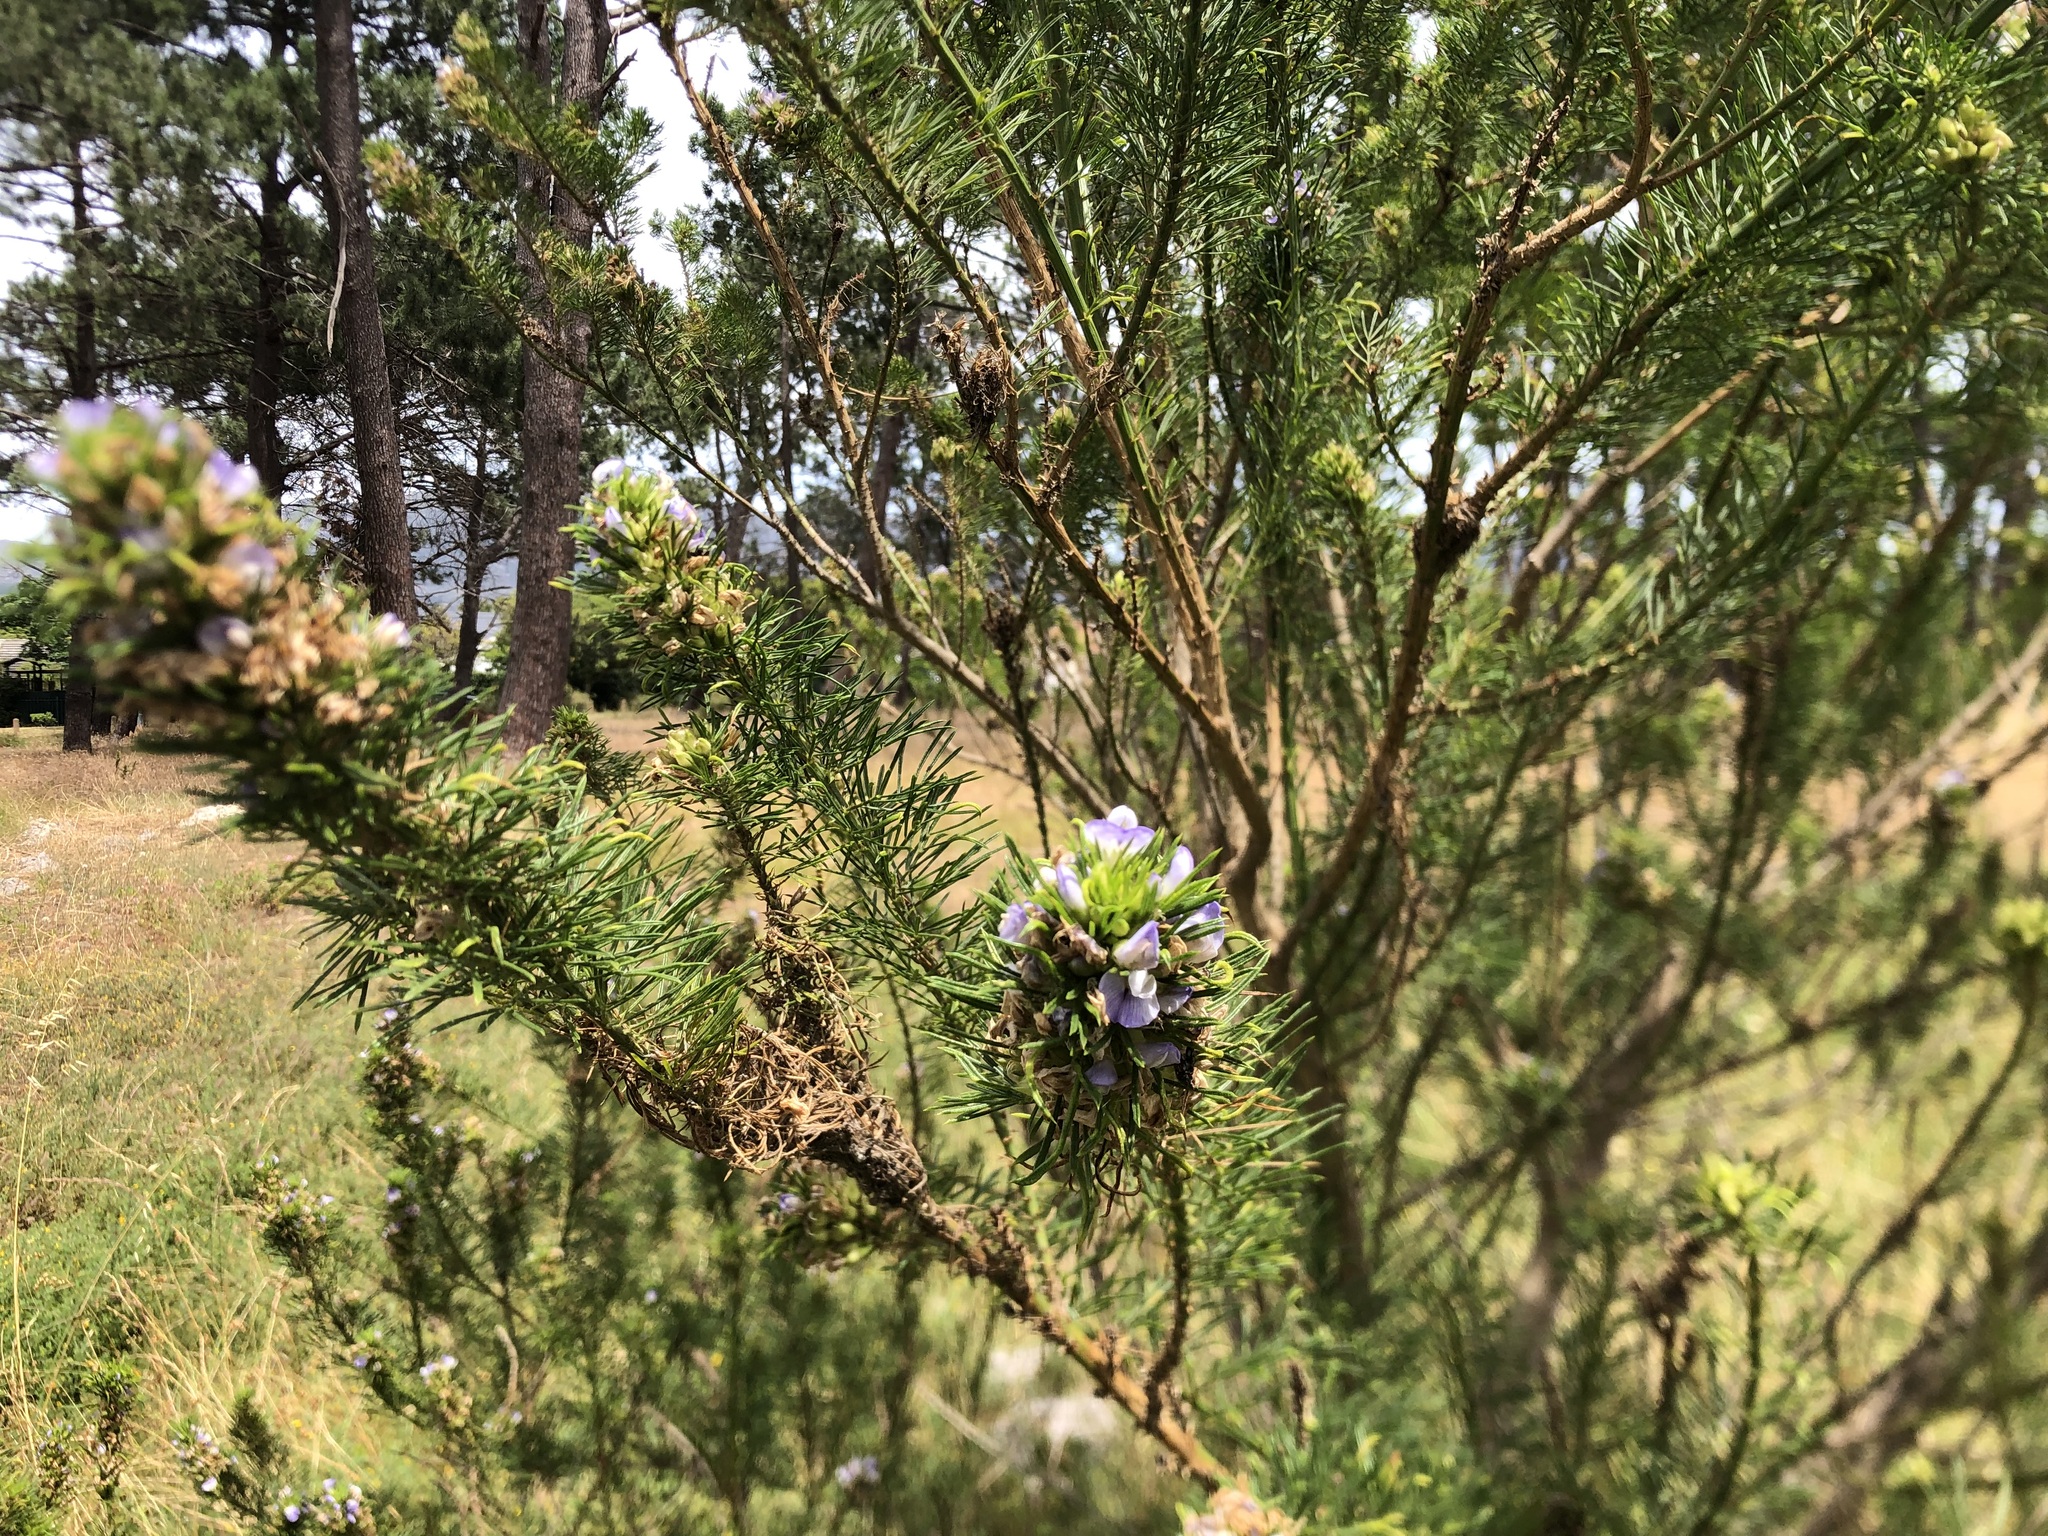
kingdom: Plantae
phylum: Tracheophyta
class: Magnoliopsida
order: Fabales
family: Fabaceae
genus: Psoralea
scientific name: Psoralea pinnata
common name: African scurfpea
